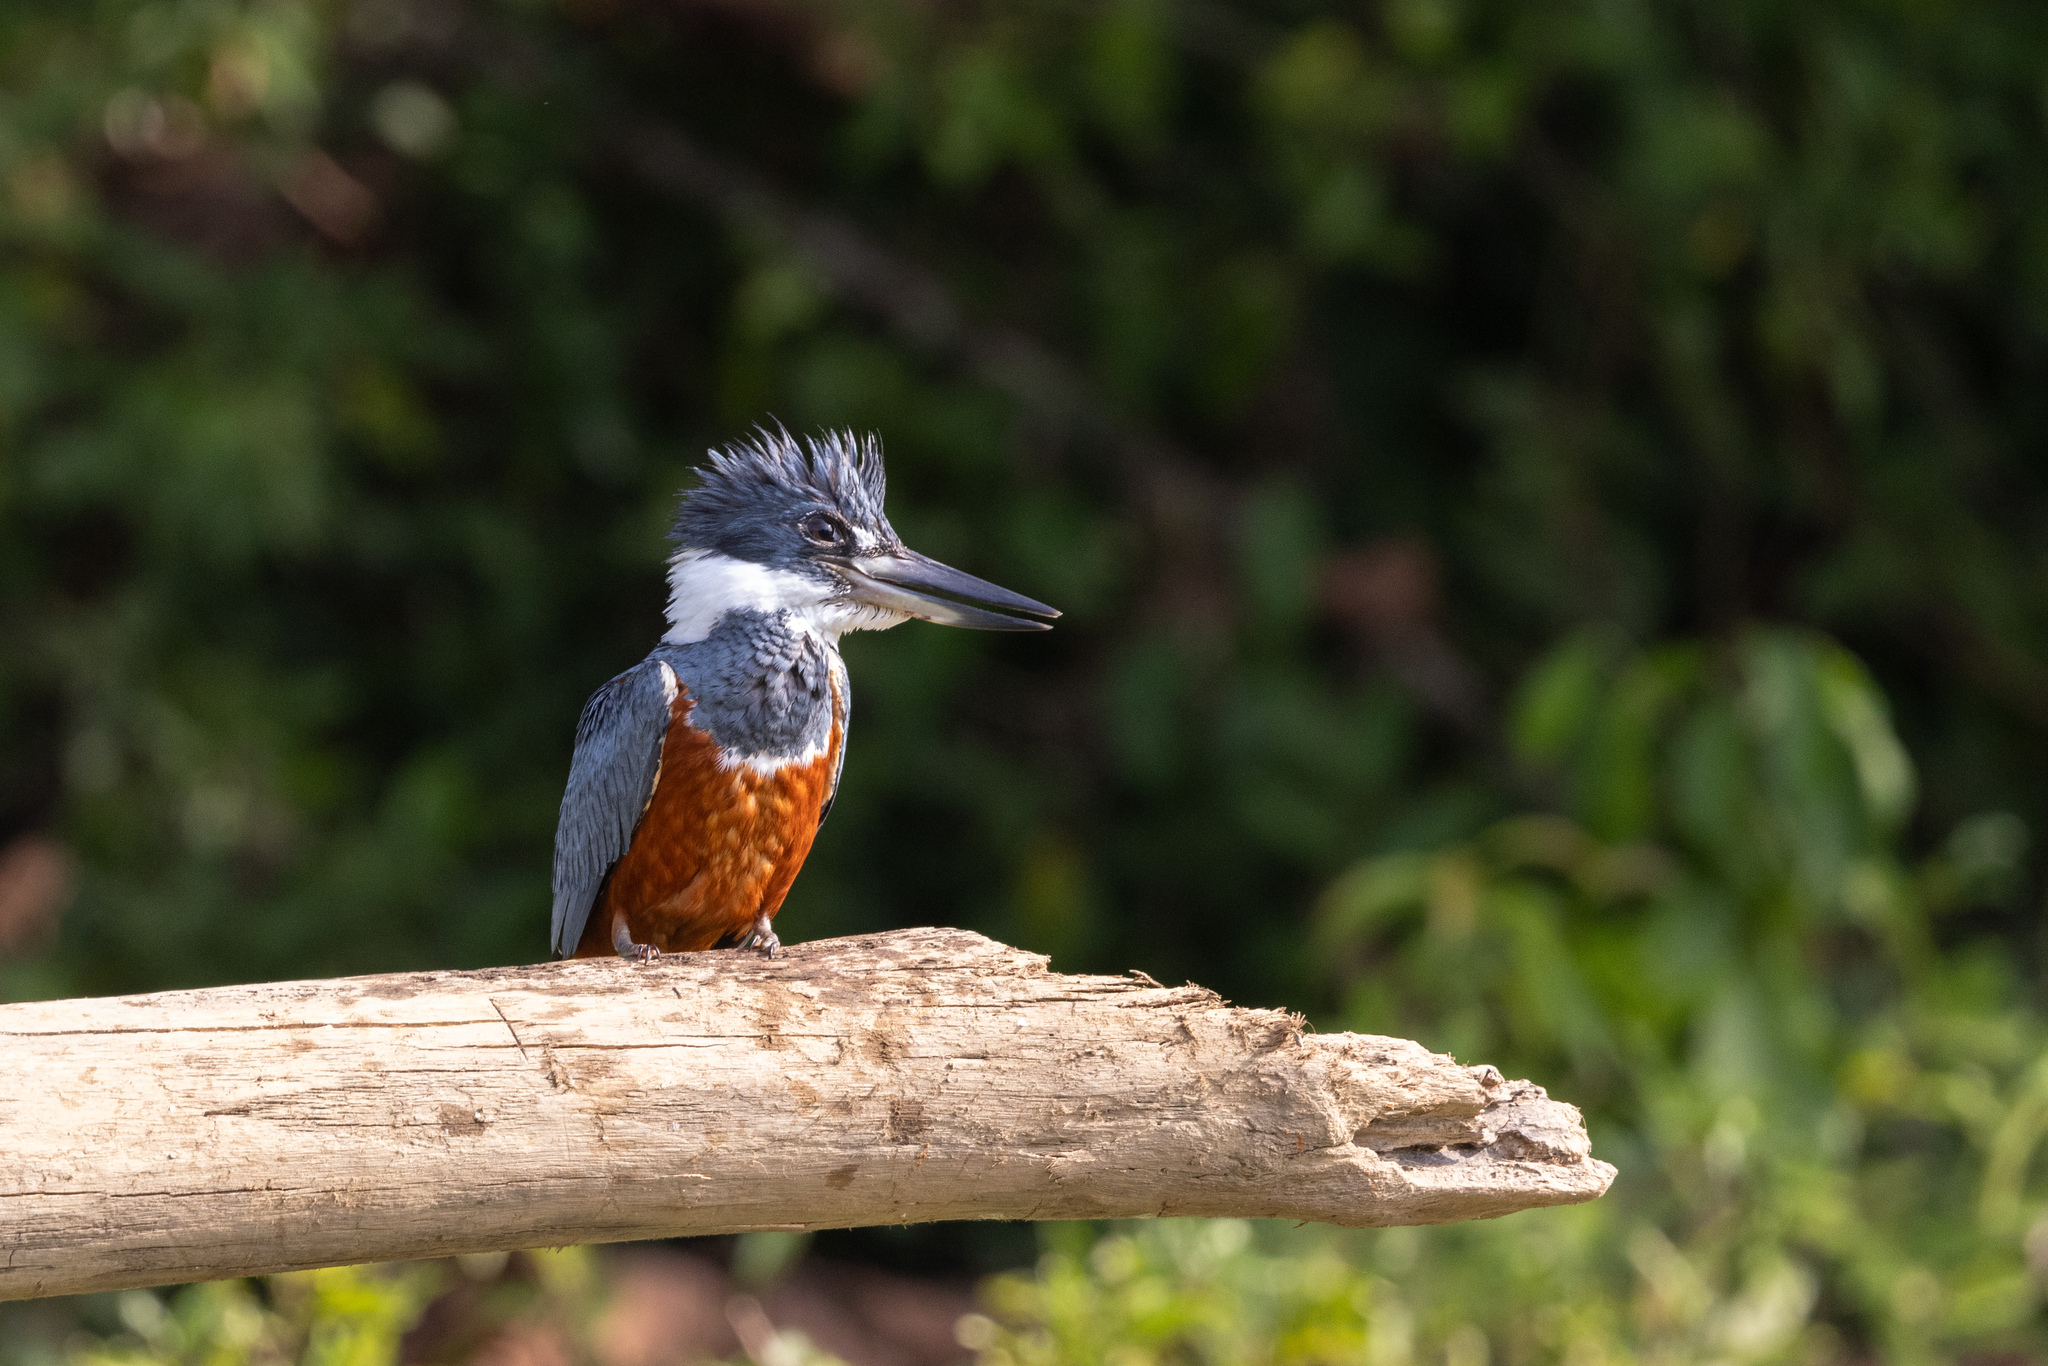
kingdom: Animalia
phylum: Chordata
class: Aves
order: Coraciiformes
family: Alcedinidae
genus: Megaceryle
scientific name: Megaceryle torquata
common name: Ringed kingfisher
